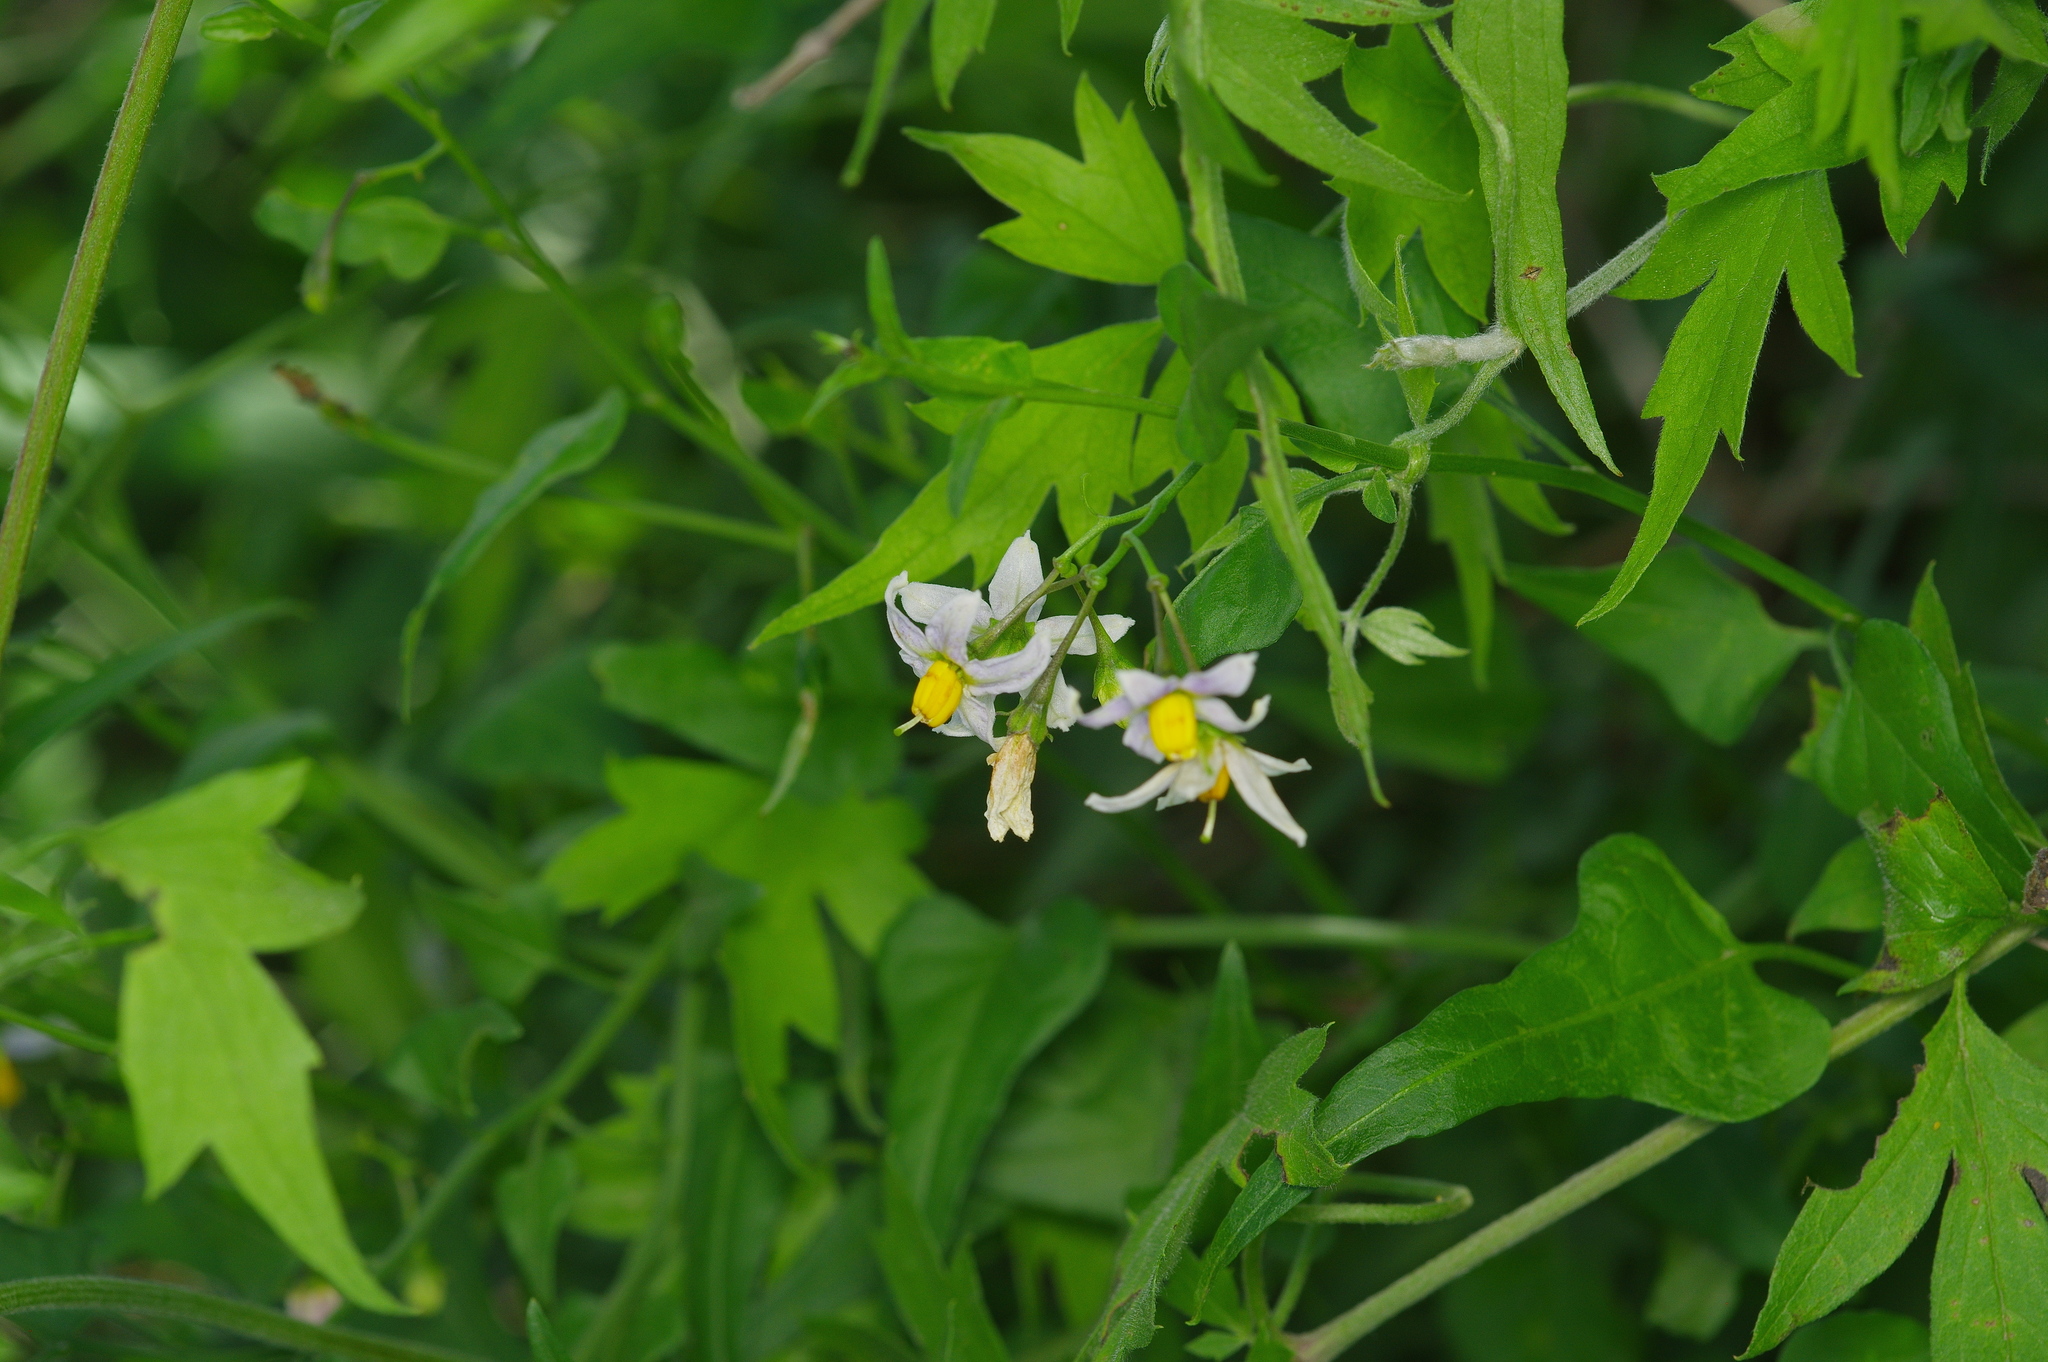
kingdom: Plantae
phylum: Tracheophyta
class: Magnoliopsida
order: Solanales
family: Solanaceae
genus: Solanum
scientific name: Solanum triquetrum
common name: Texas nightshade
